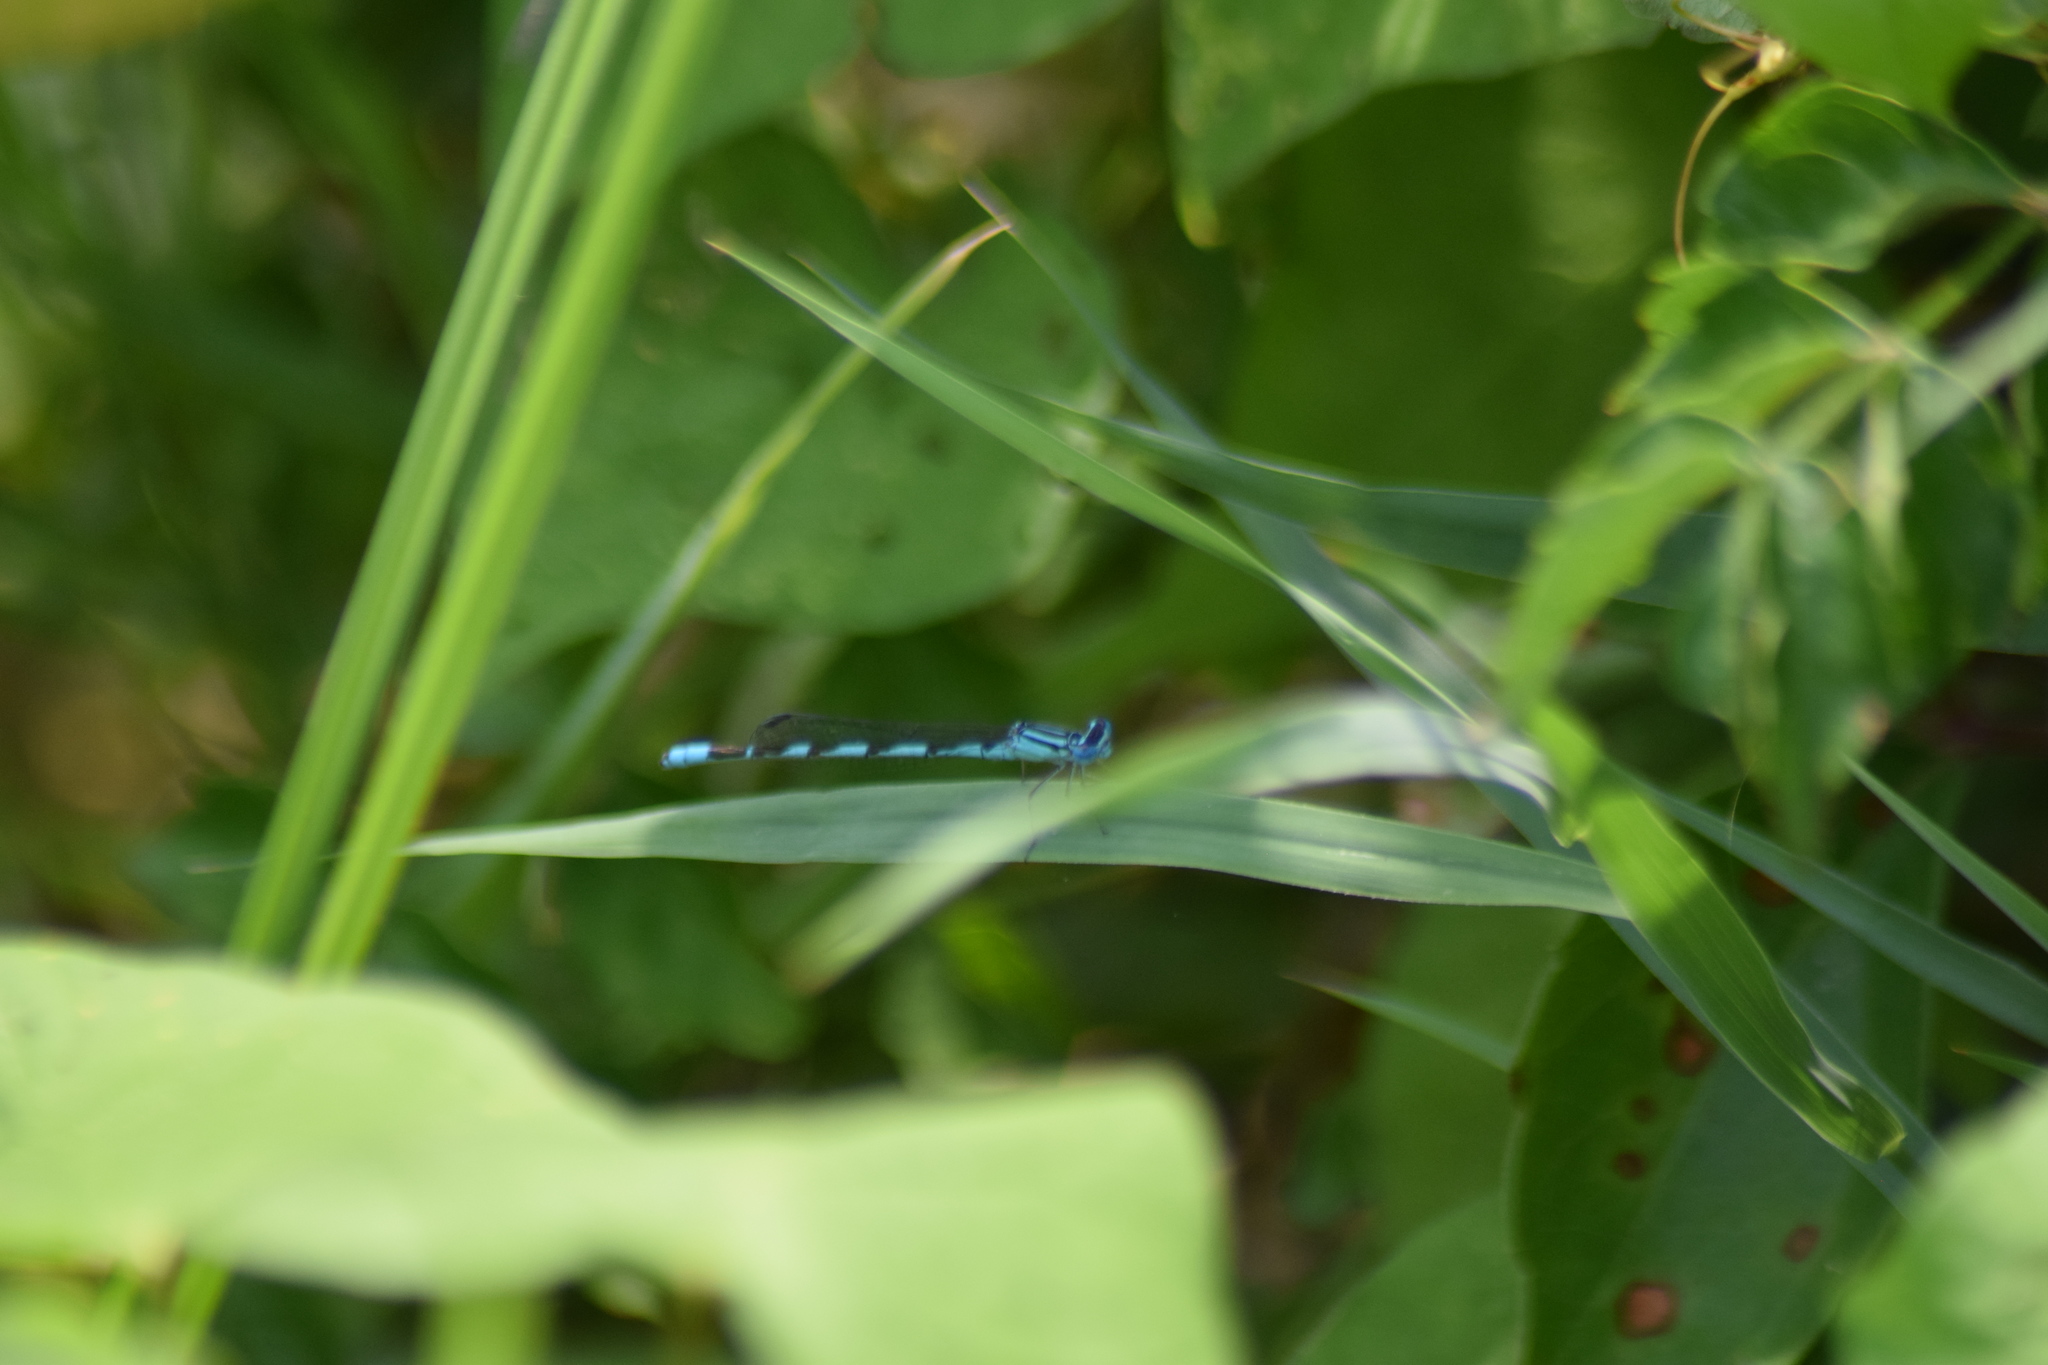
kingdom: Animalia
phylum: Arthropoda
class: Insecta
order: Odonata
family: Coenagrionidae
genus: Enallagma
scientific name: Enallagma durum
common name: Big bluet
